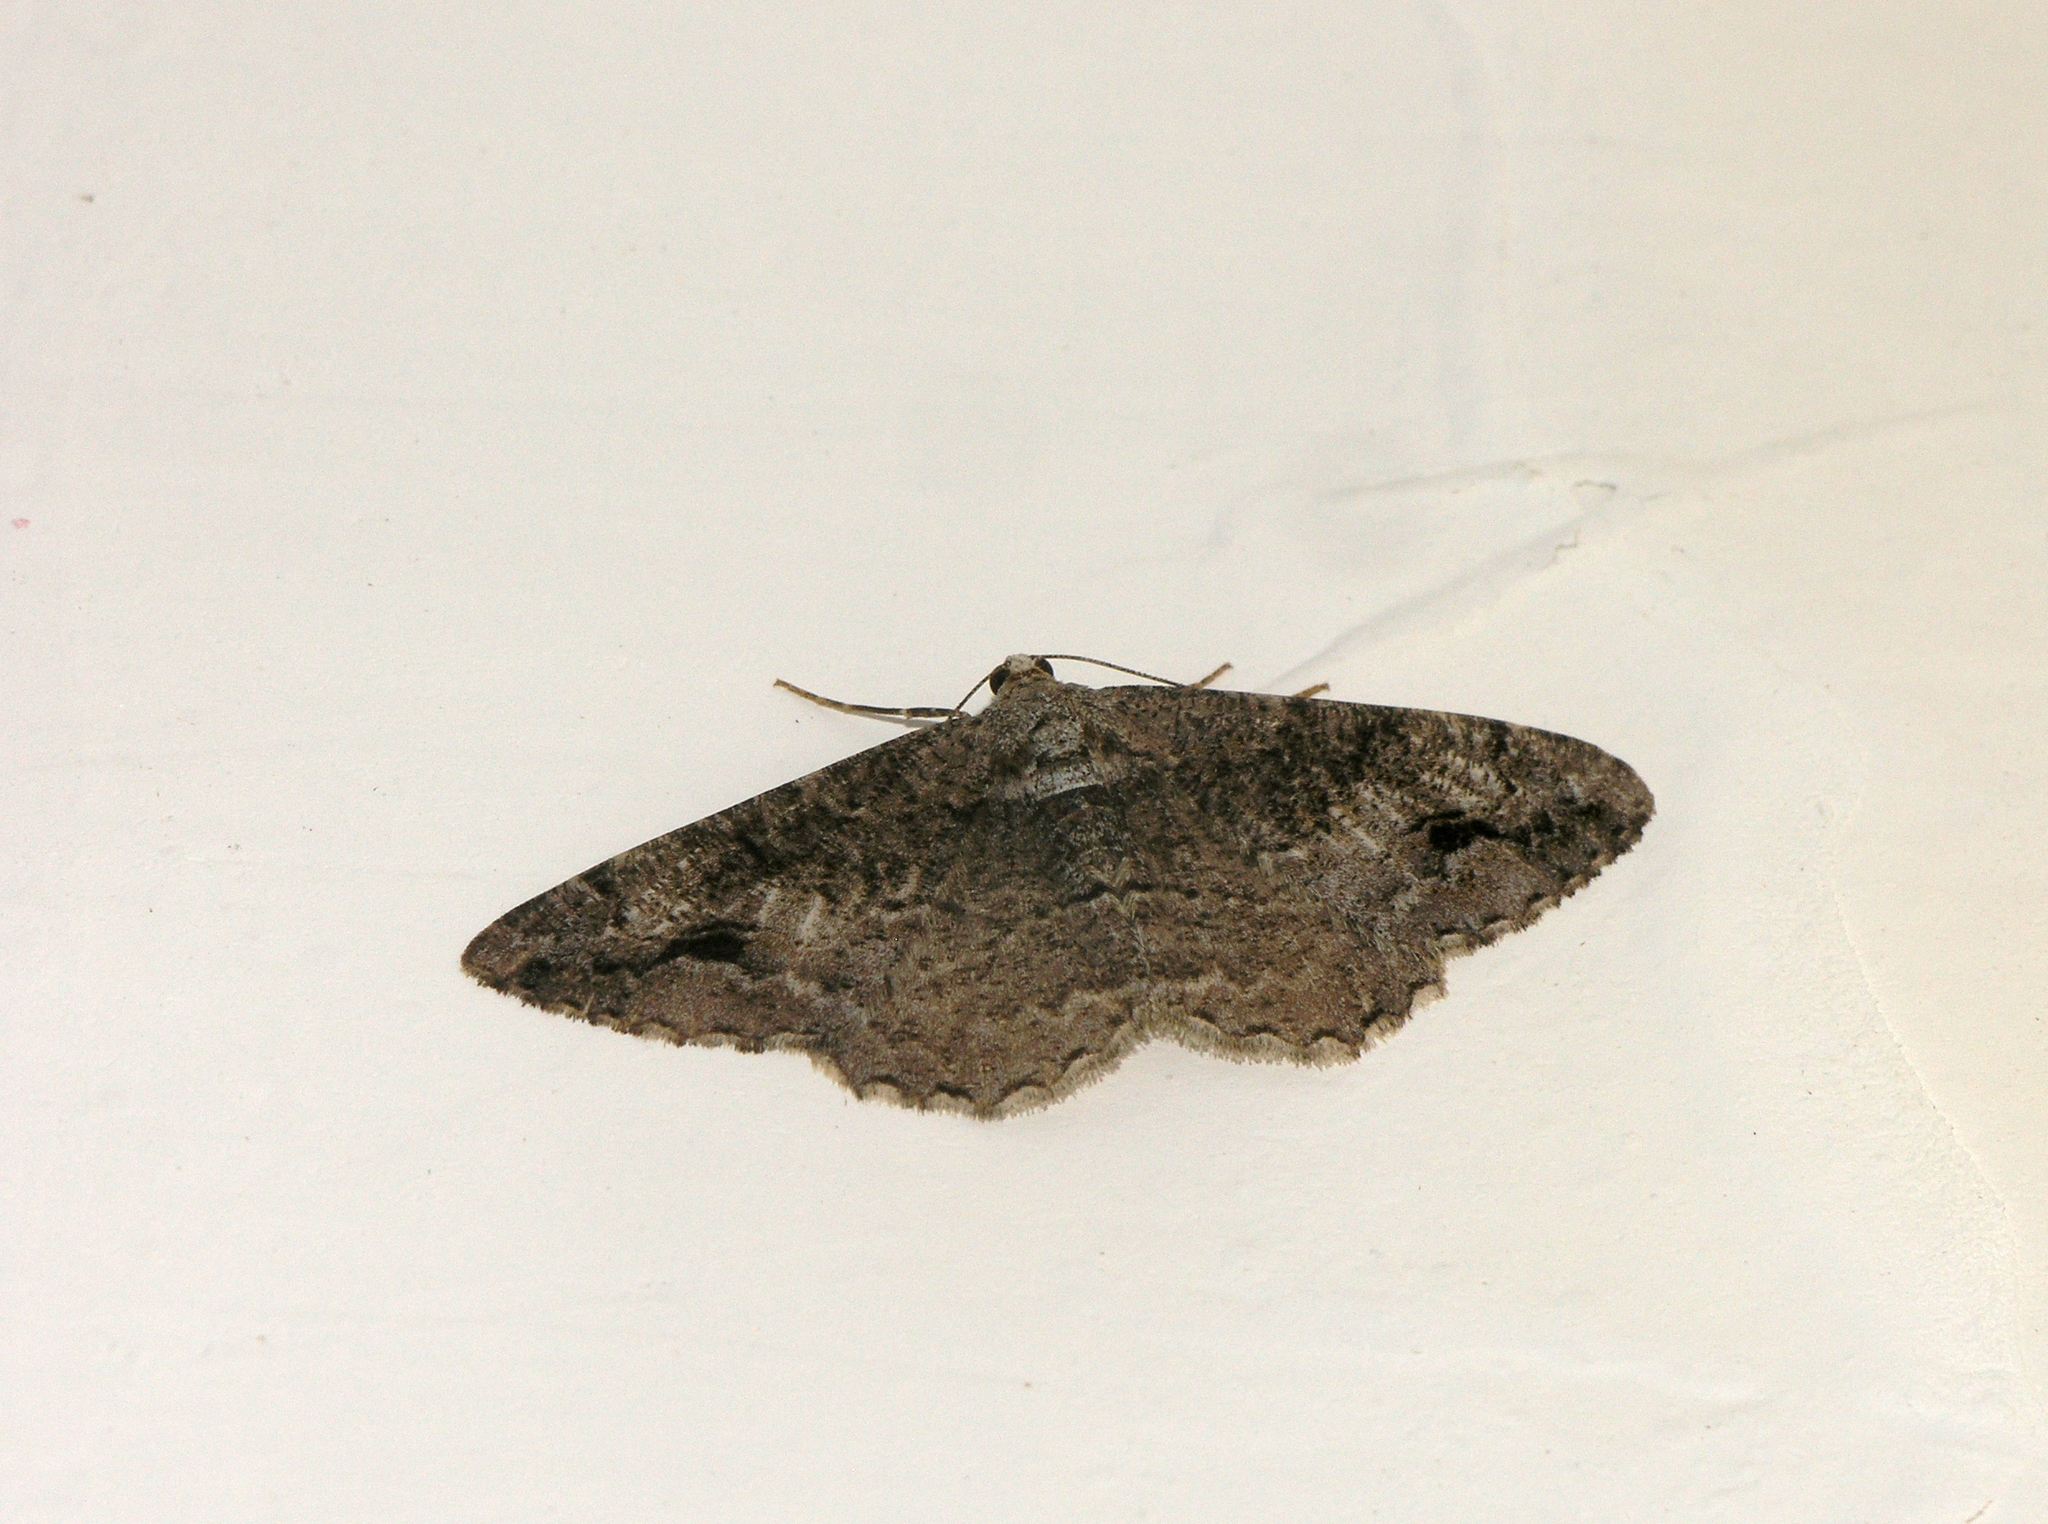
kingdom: Animalia
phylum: Arthropoda
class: Insecta
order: Lepidoptera
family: Geometridae
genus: Alcis
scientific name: Alcis deversata
